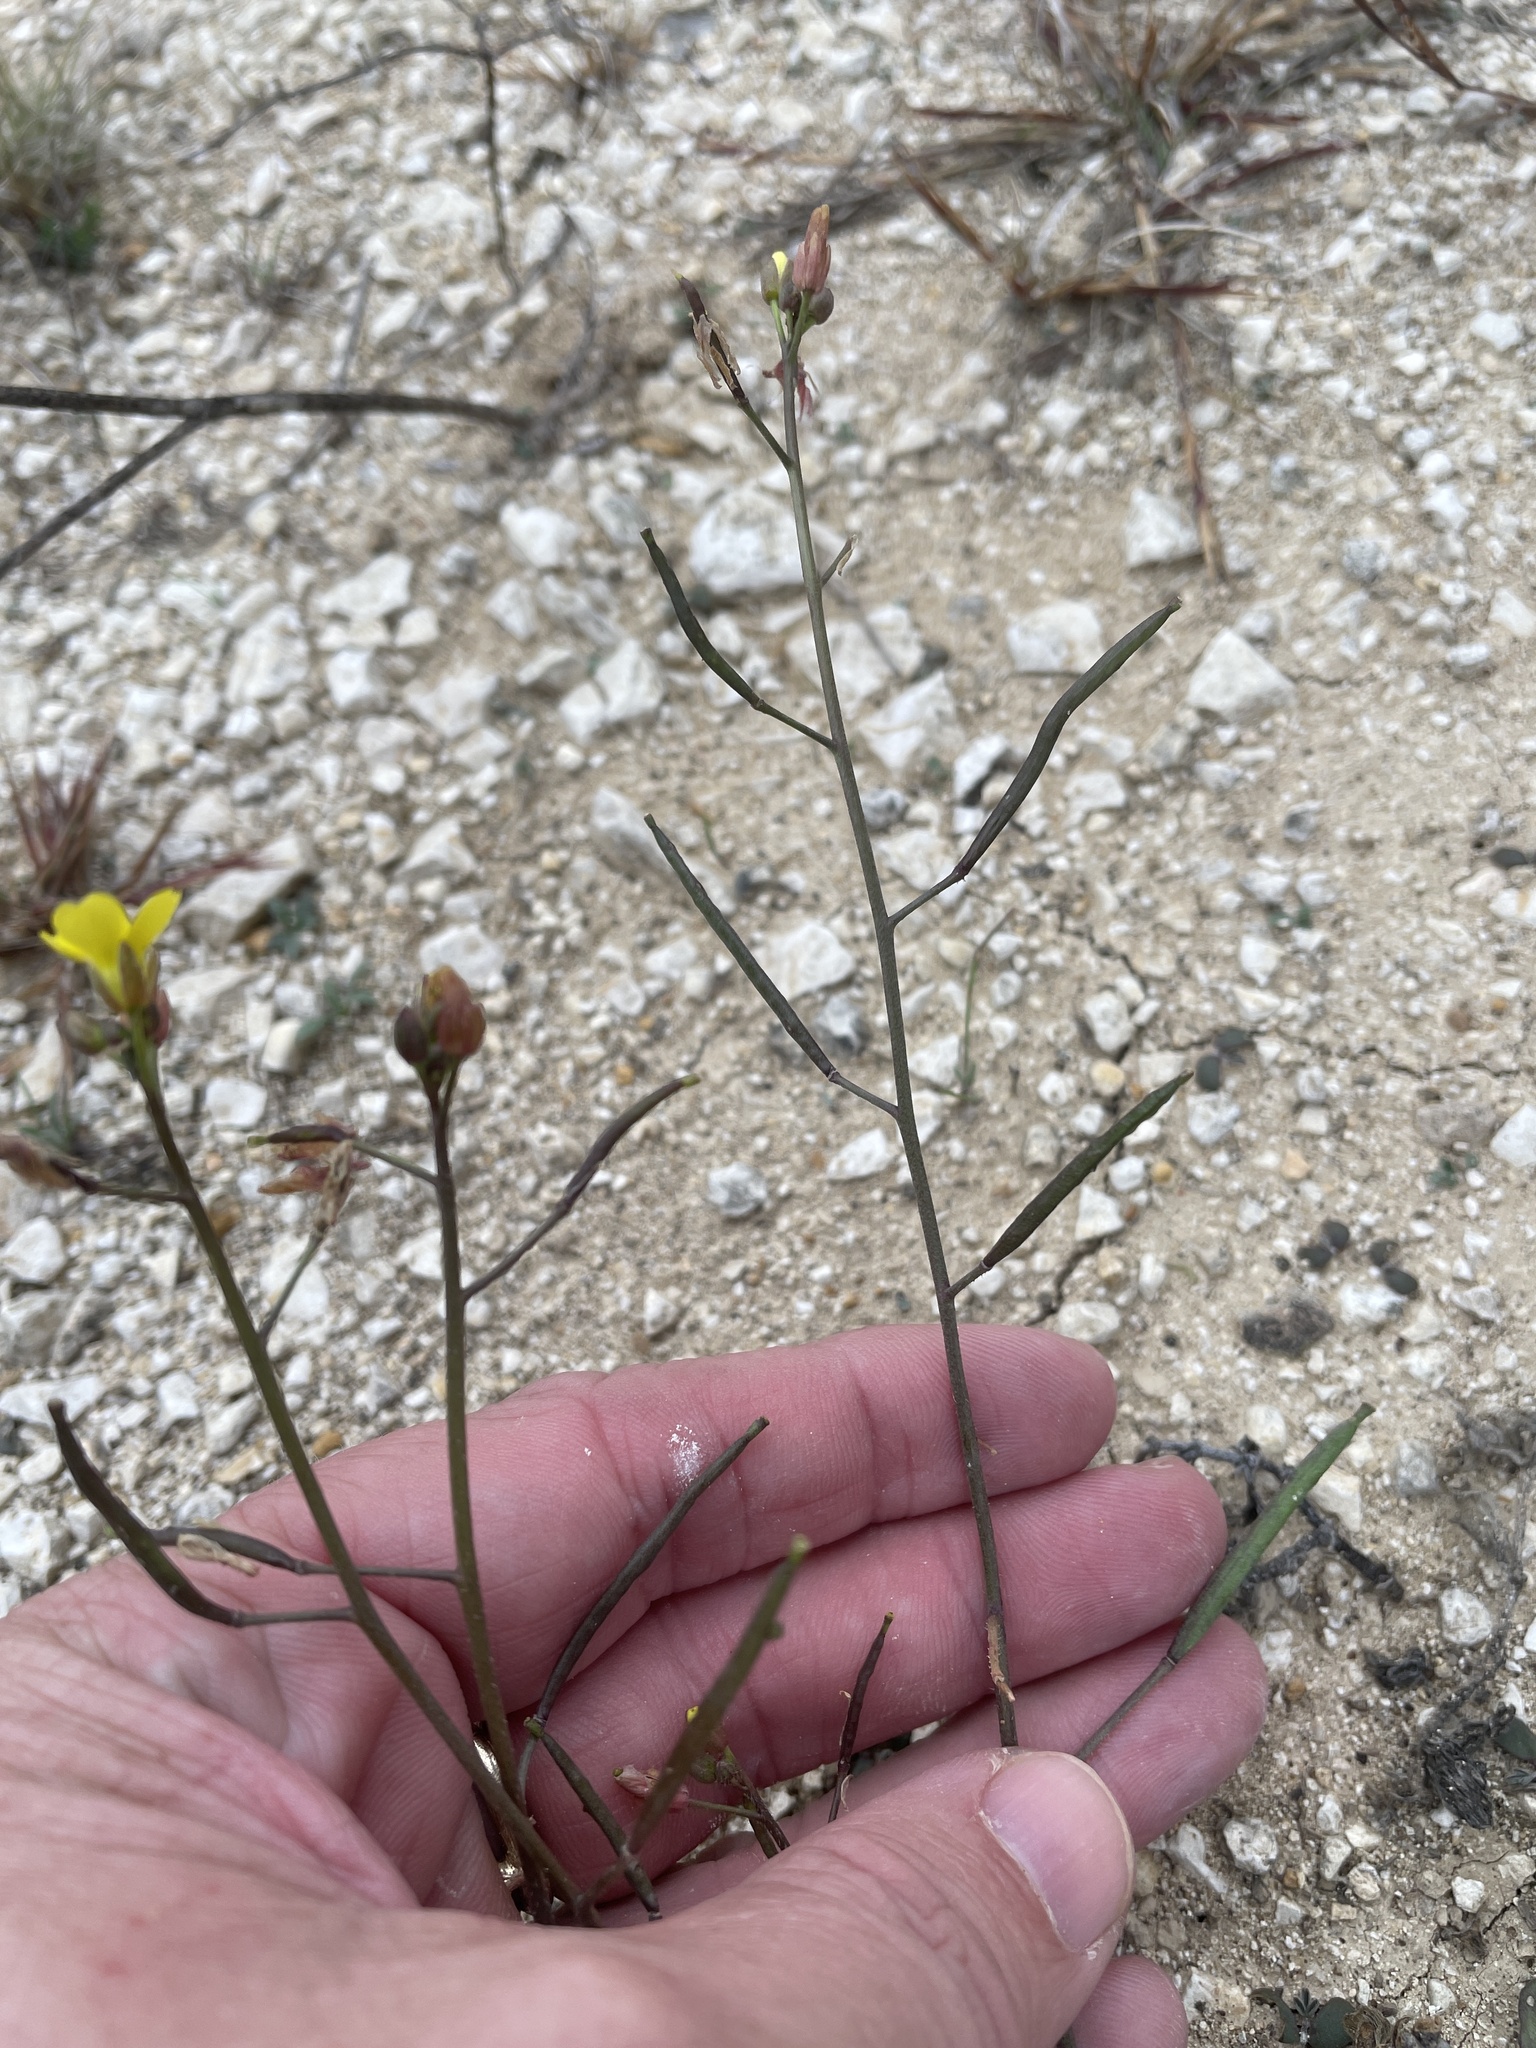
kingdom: Plantae
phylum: Tracheophyta
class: Magnoliopsida
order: Brassicales
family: Brassicaceae
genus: Diplotaxis
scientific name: Diplotaxis muralis
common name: Annual wall-rocket
